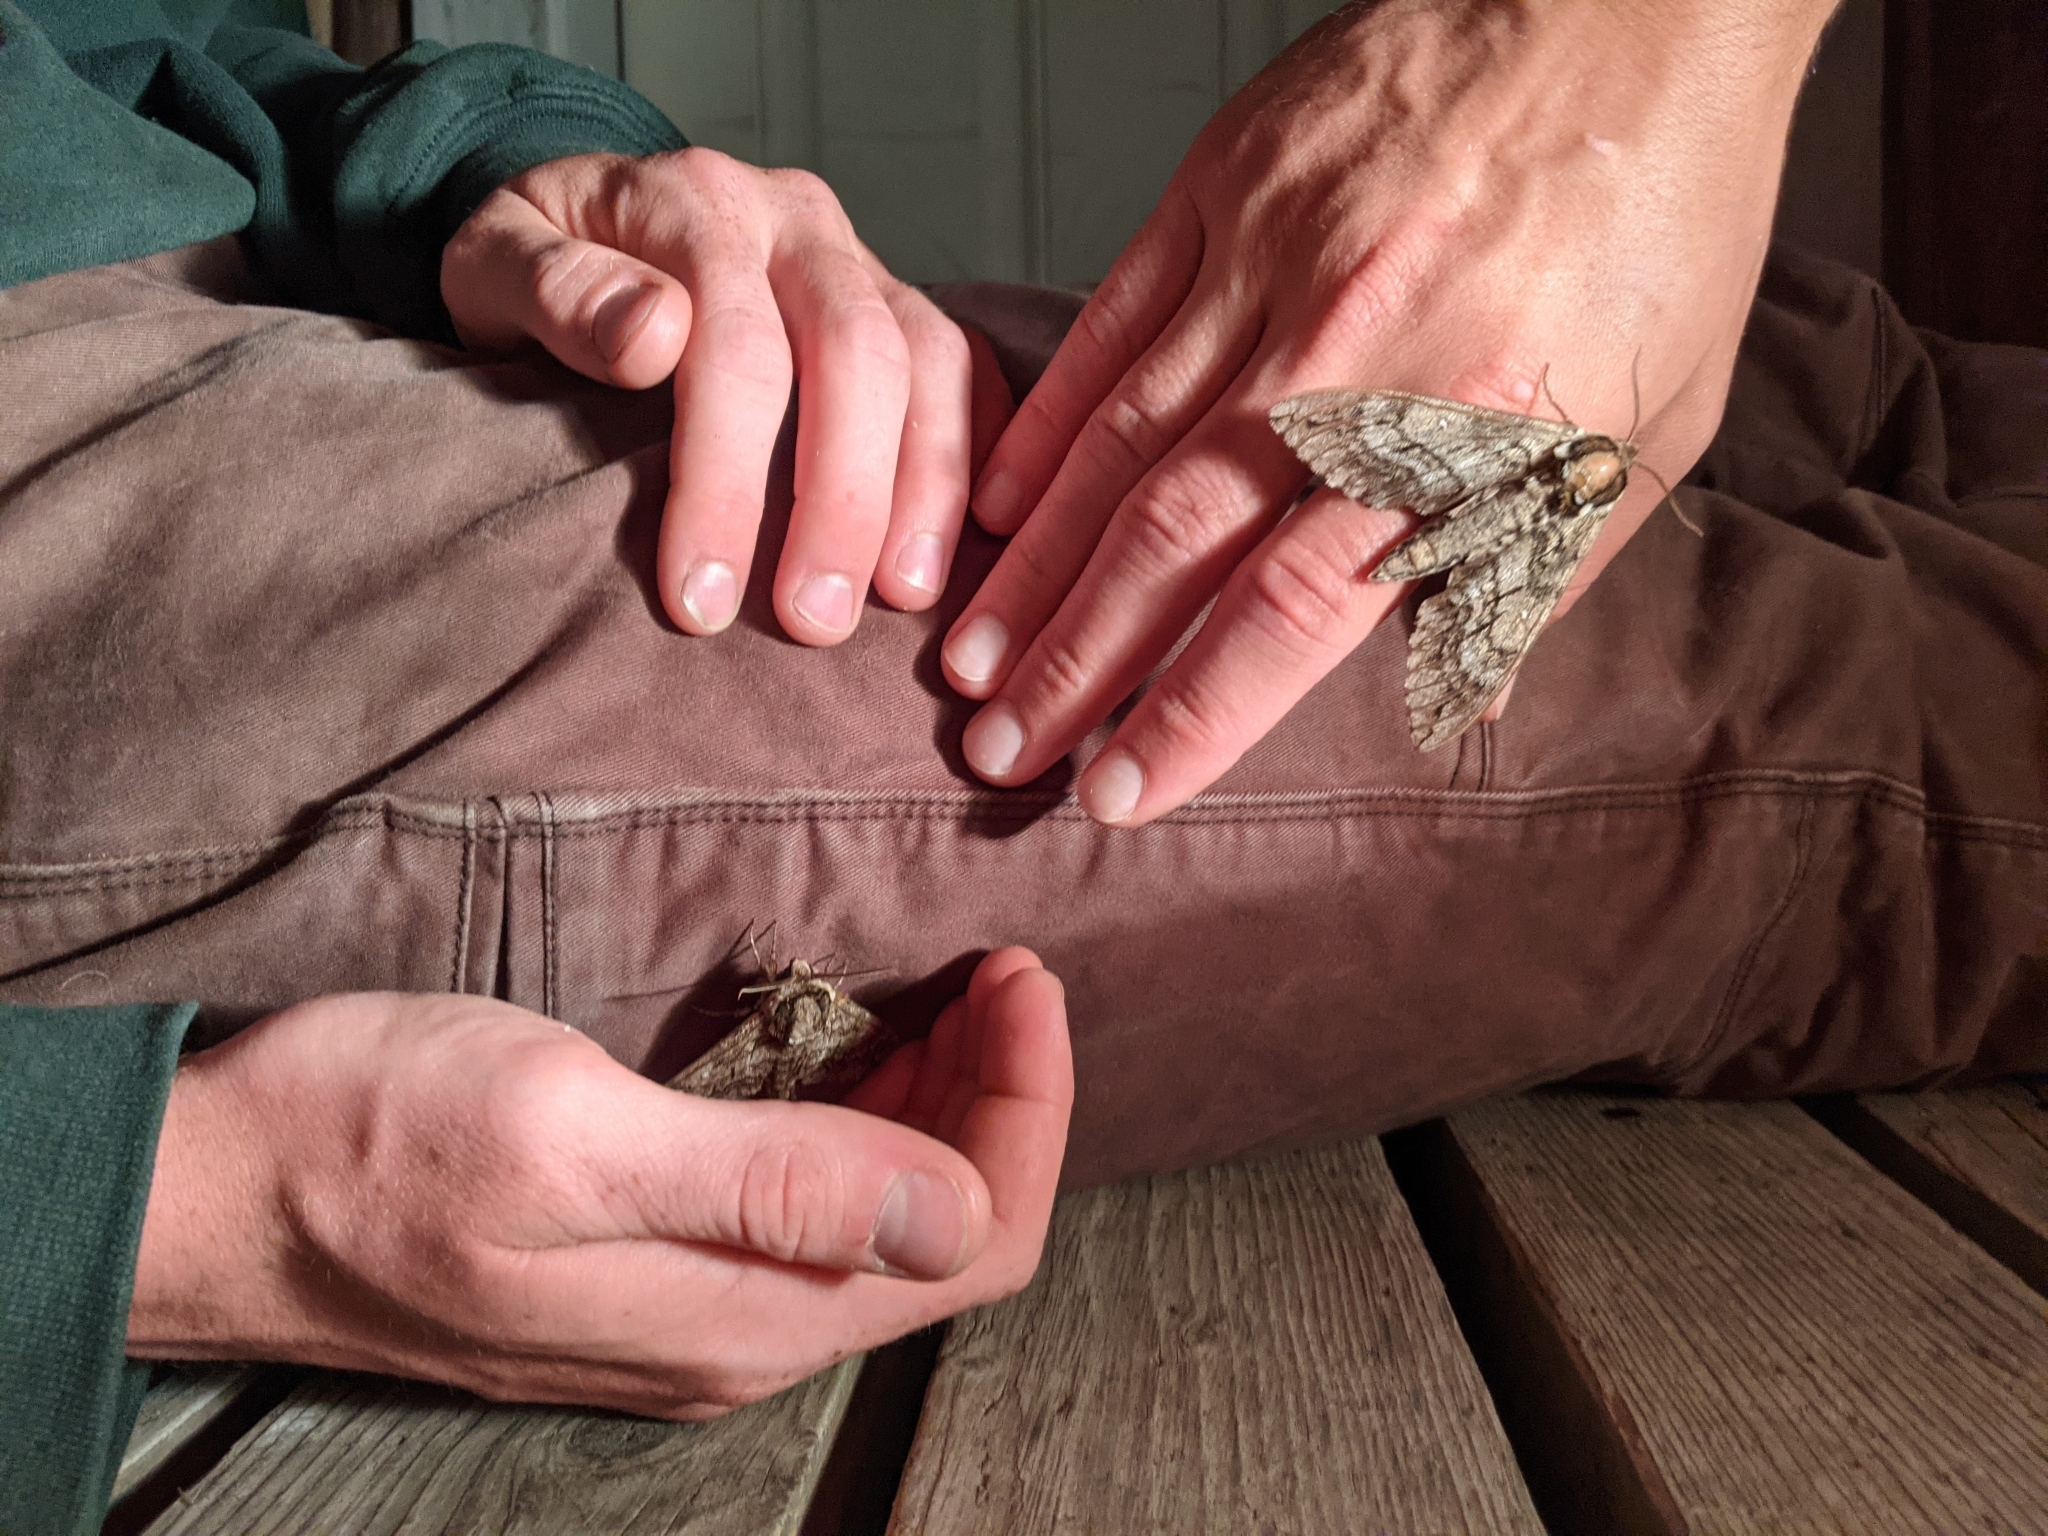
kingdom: Animalia
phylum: Arthropoda
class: Insecta
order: Lepidoptera
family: Sphingidae
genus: Ceratomia
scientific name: Ceratomia undulosa
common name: Waved sphinx
